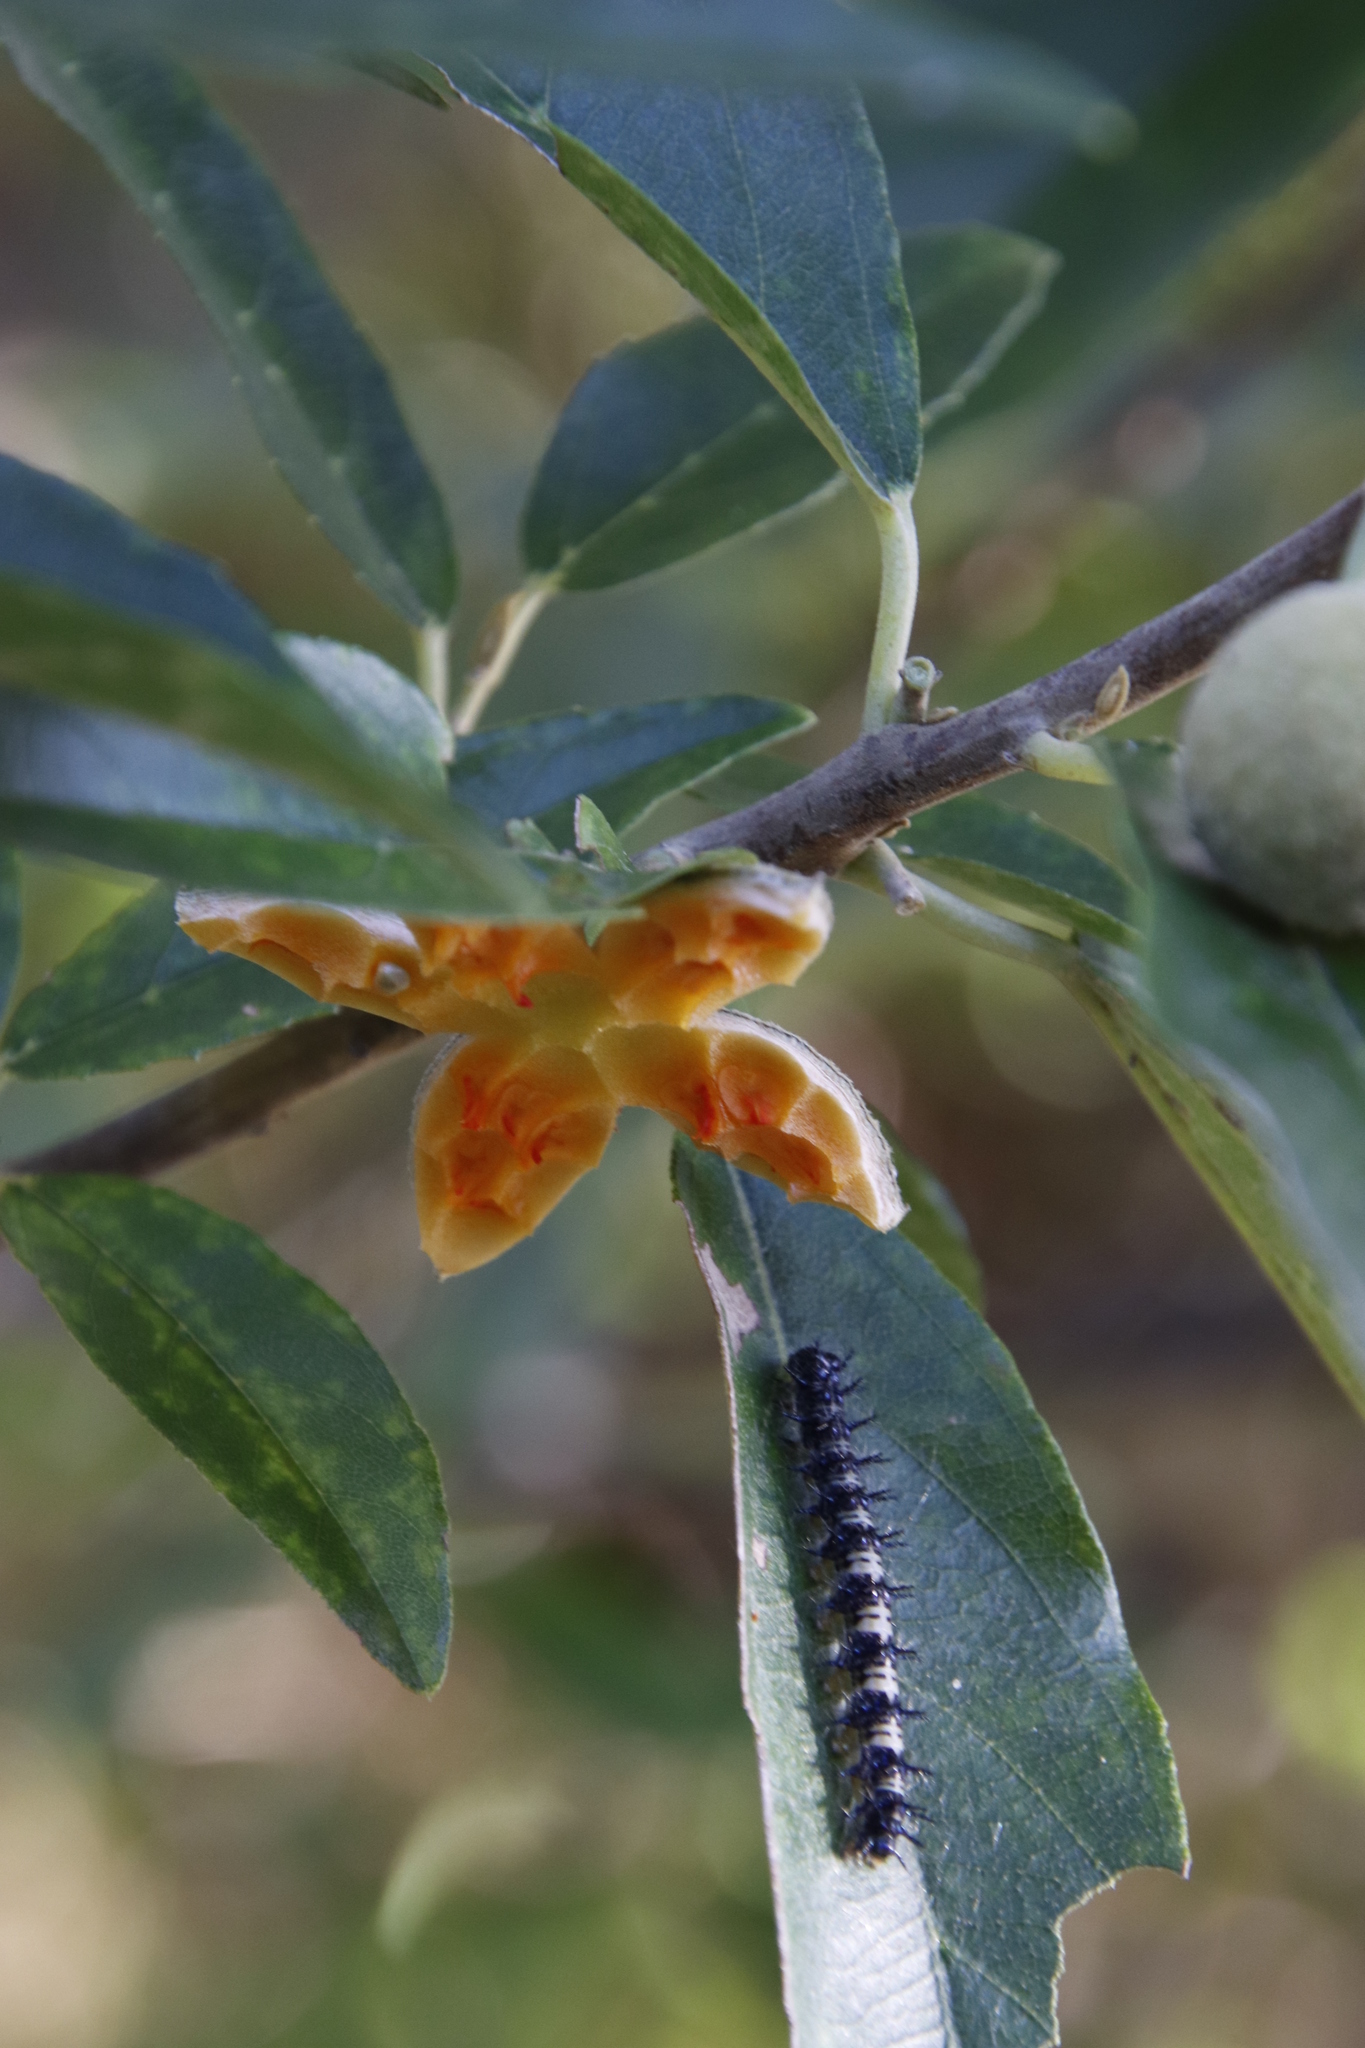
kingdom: Animalia
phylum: Arthropoda
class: Insecta
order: Lepidoptera
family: Nymphalidae
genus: Acraea
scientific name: Acraea horta
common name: Garden acraea
